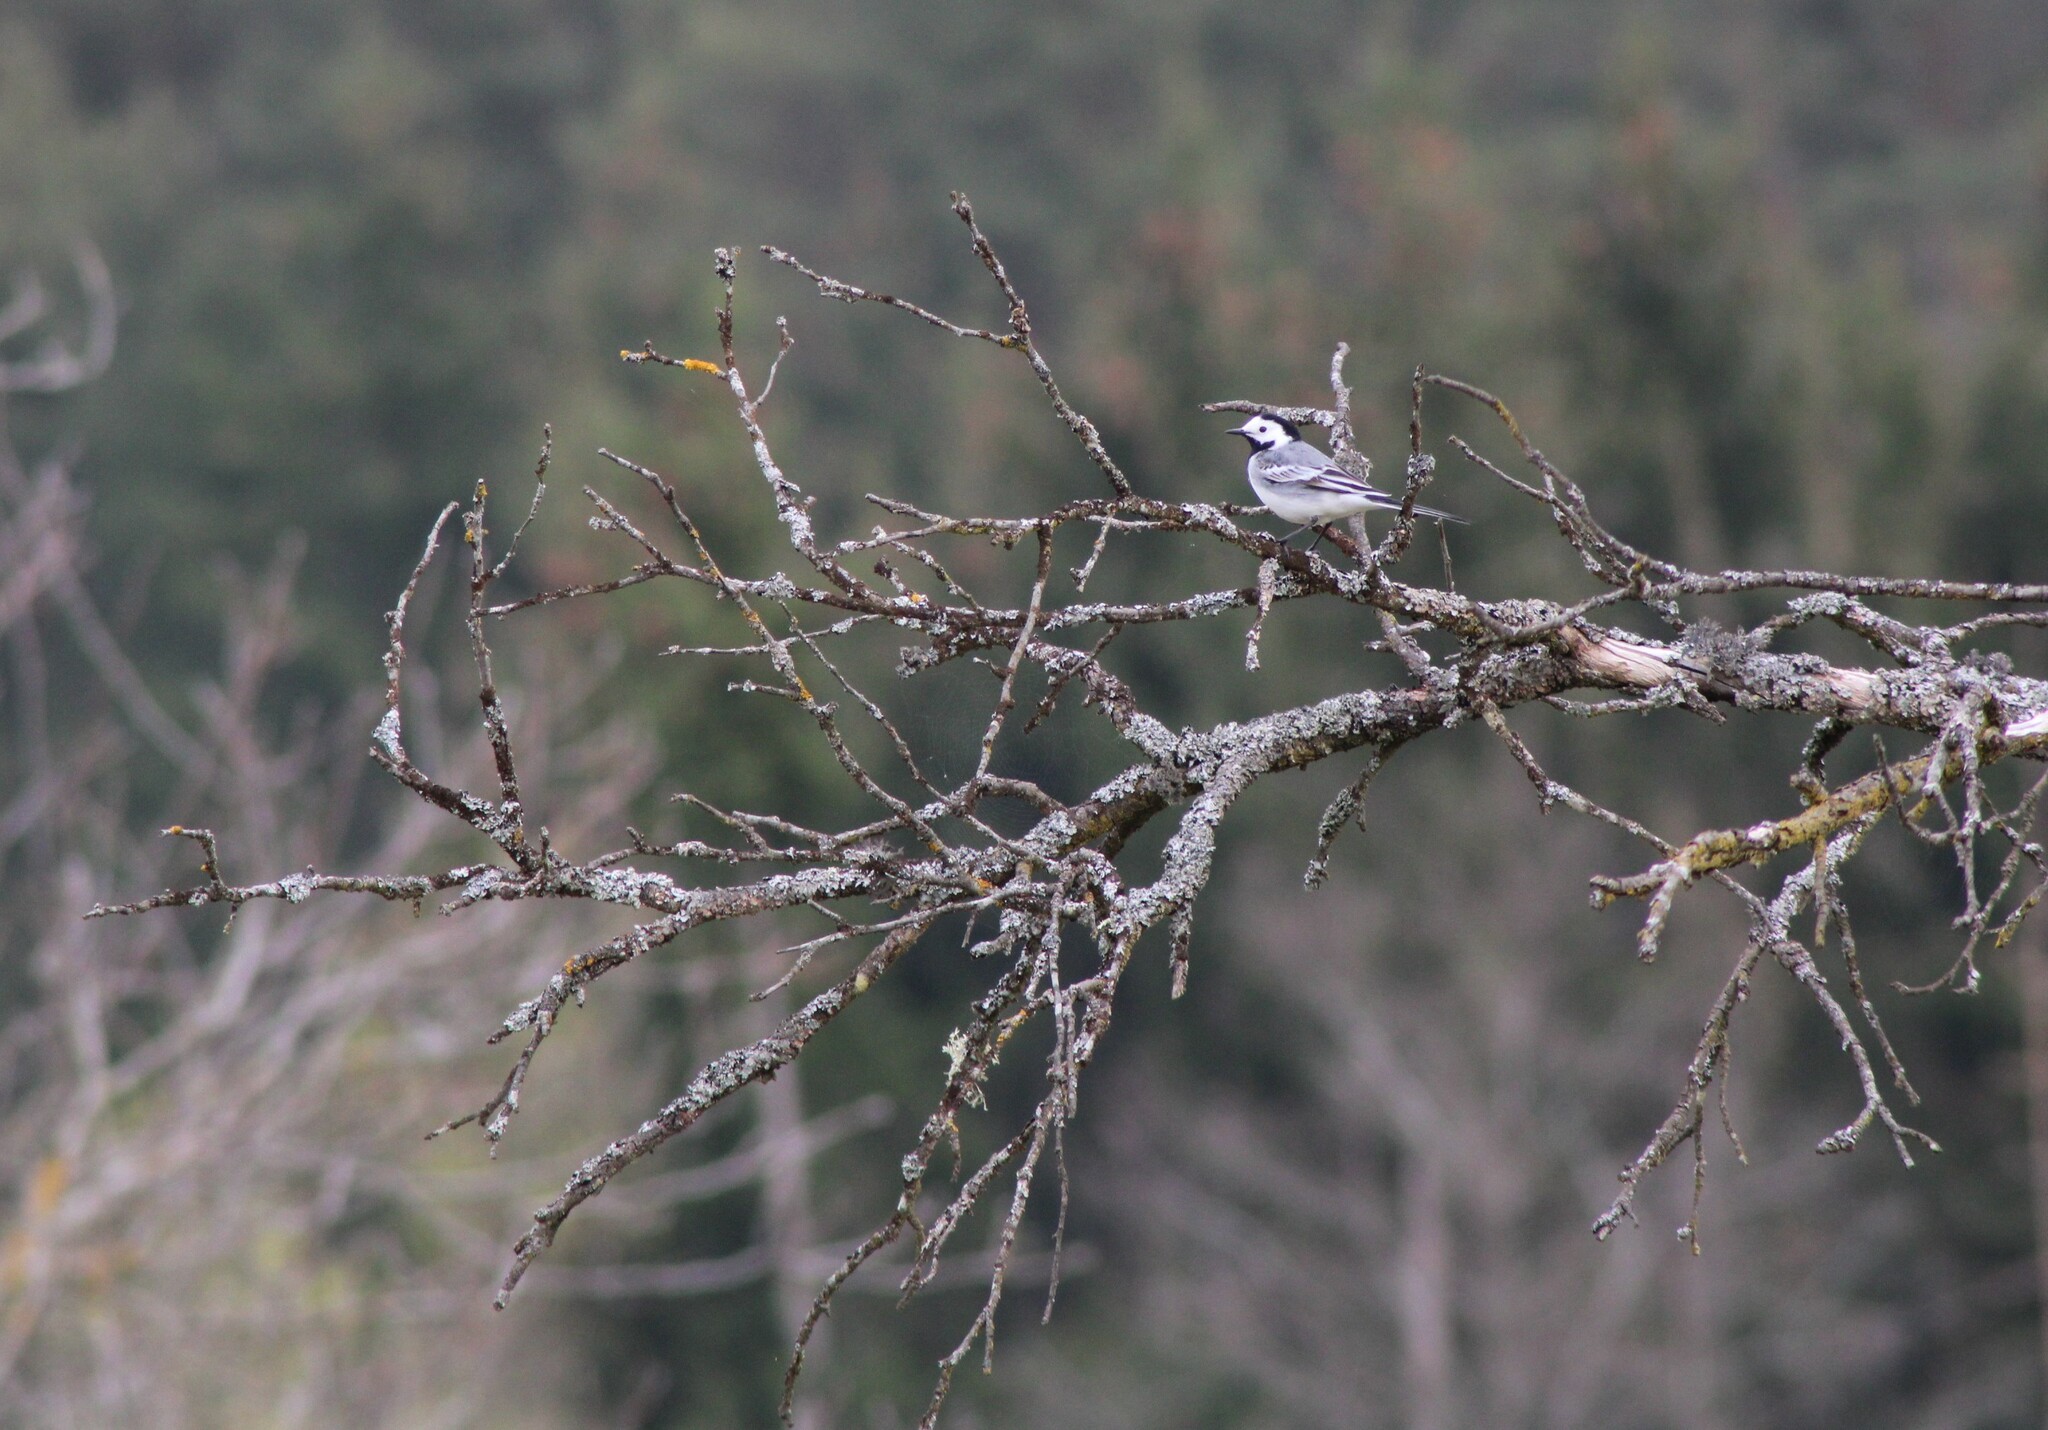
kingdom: Animalia
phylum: Chordata
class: Aves
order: Passeriformes
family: Motacillidae
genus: Motacilla
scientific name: Motacilla alba
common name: White wagtail
